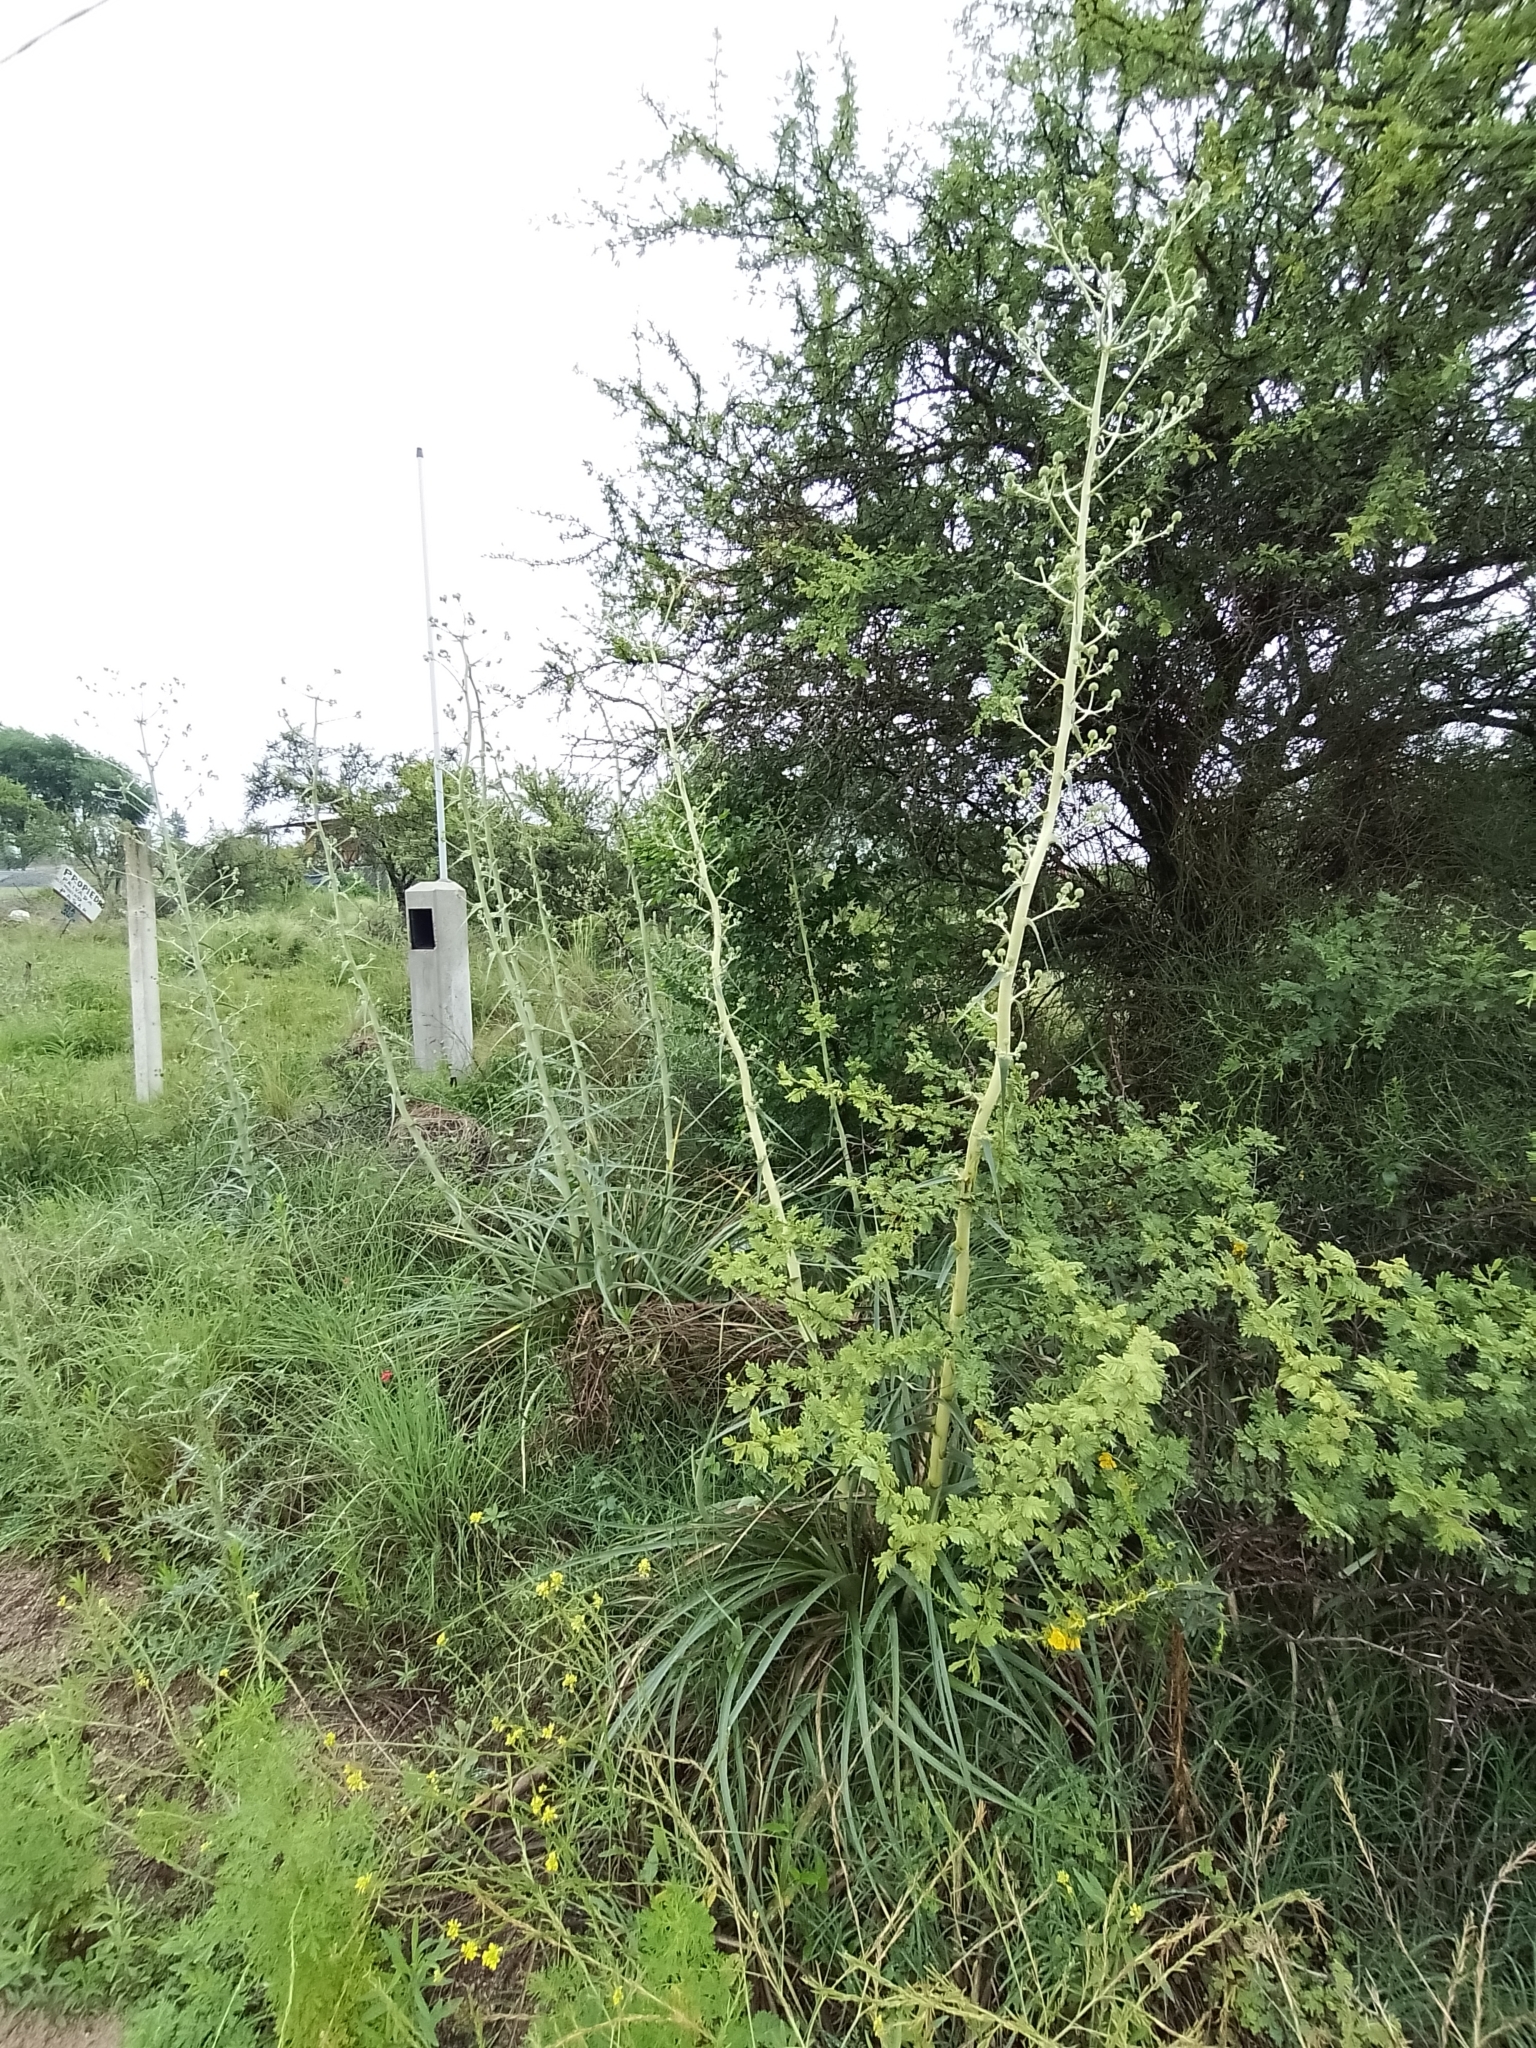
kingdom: Plantae
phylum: Tracheophyta
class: Magnoliopsida
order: Apiales
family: Apiaceae
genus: Eryngium
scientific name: Eryngium horridum
